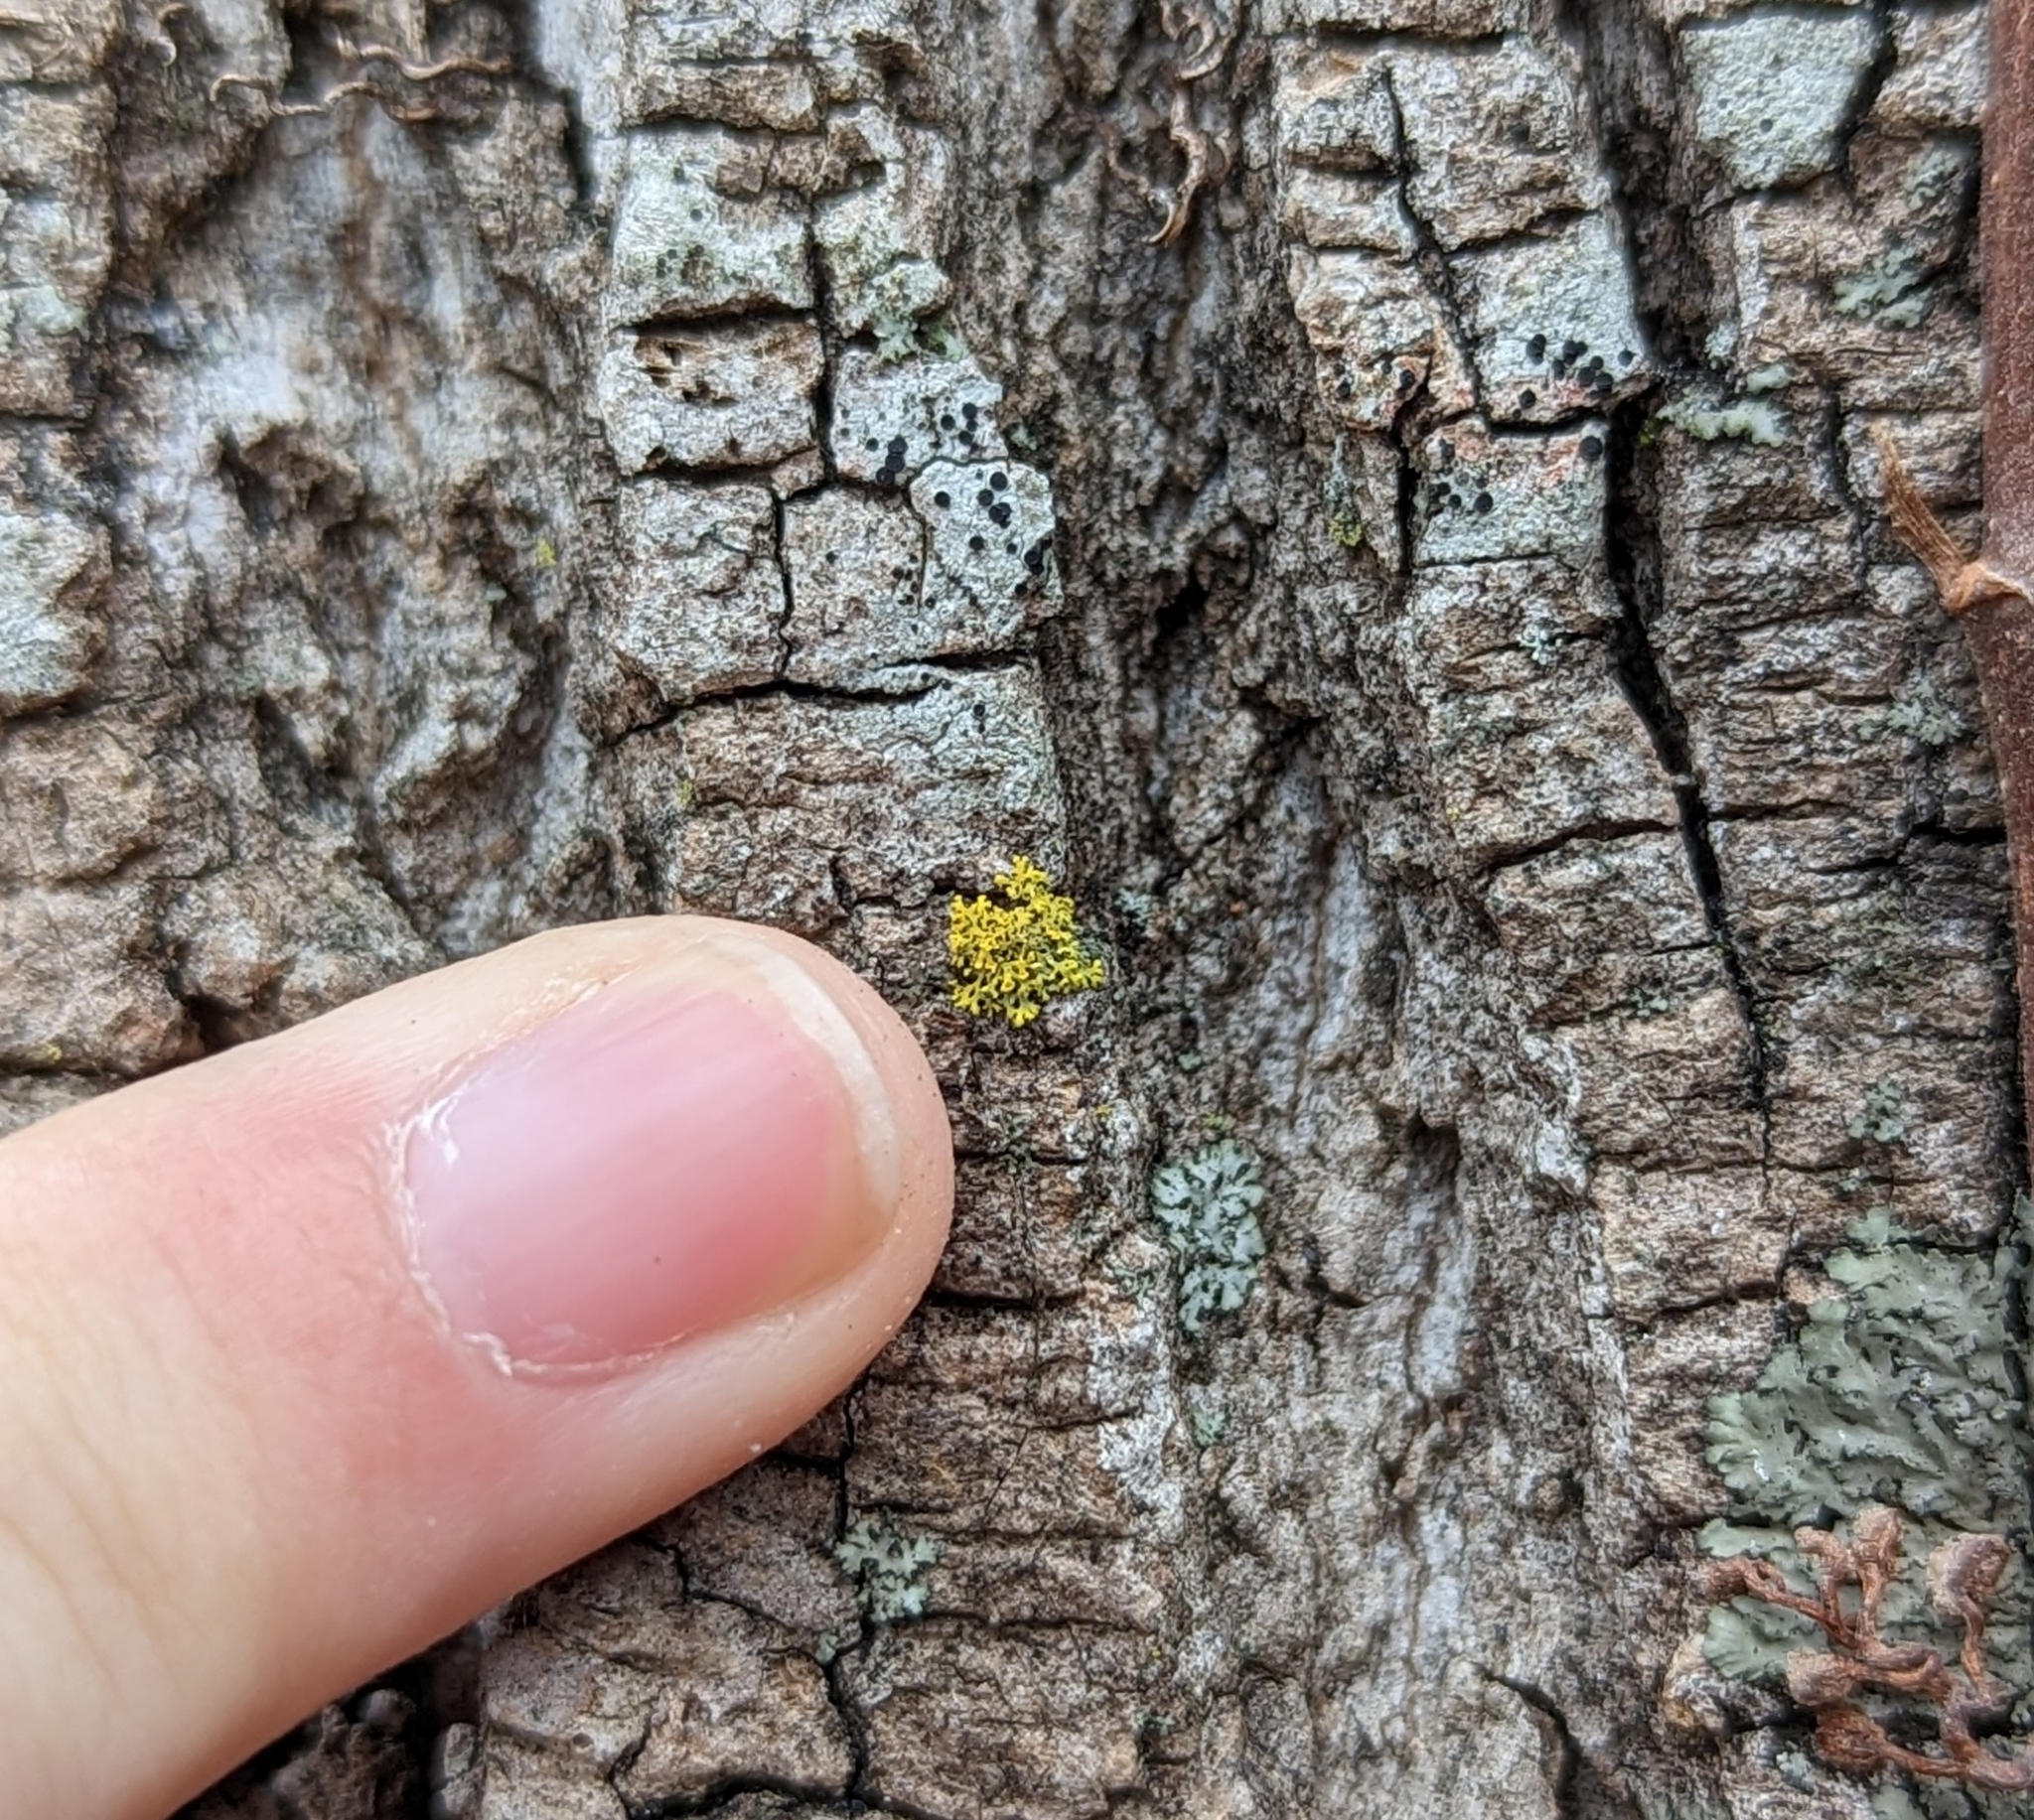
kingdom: Fungi
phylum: Ascomycota
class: Candelariomycetes
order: Candelariales
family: Candelariaceae
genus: Candelaria
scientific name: Candelaria concolor
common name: Candleflame lichen
